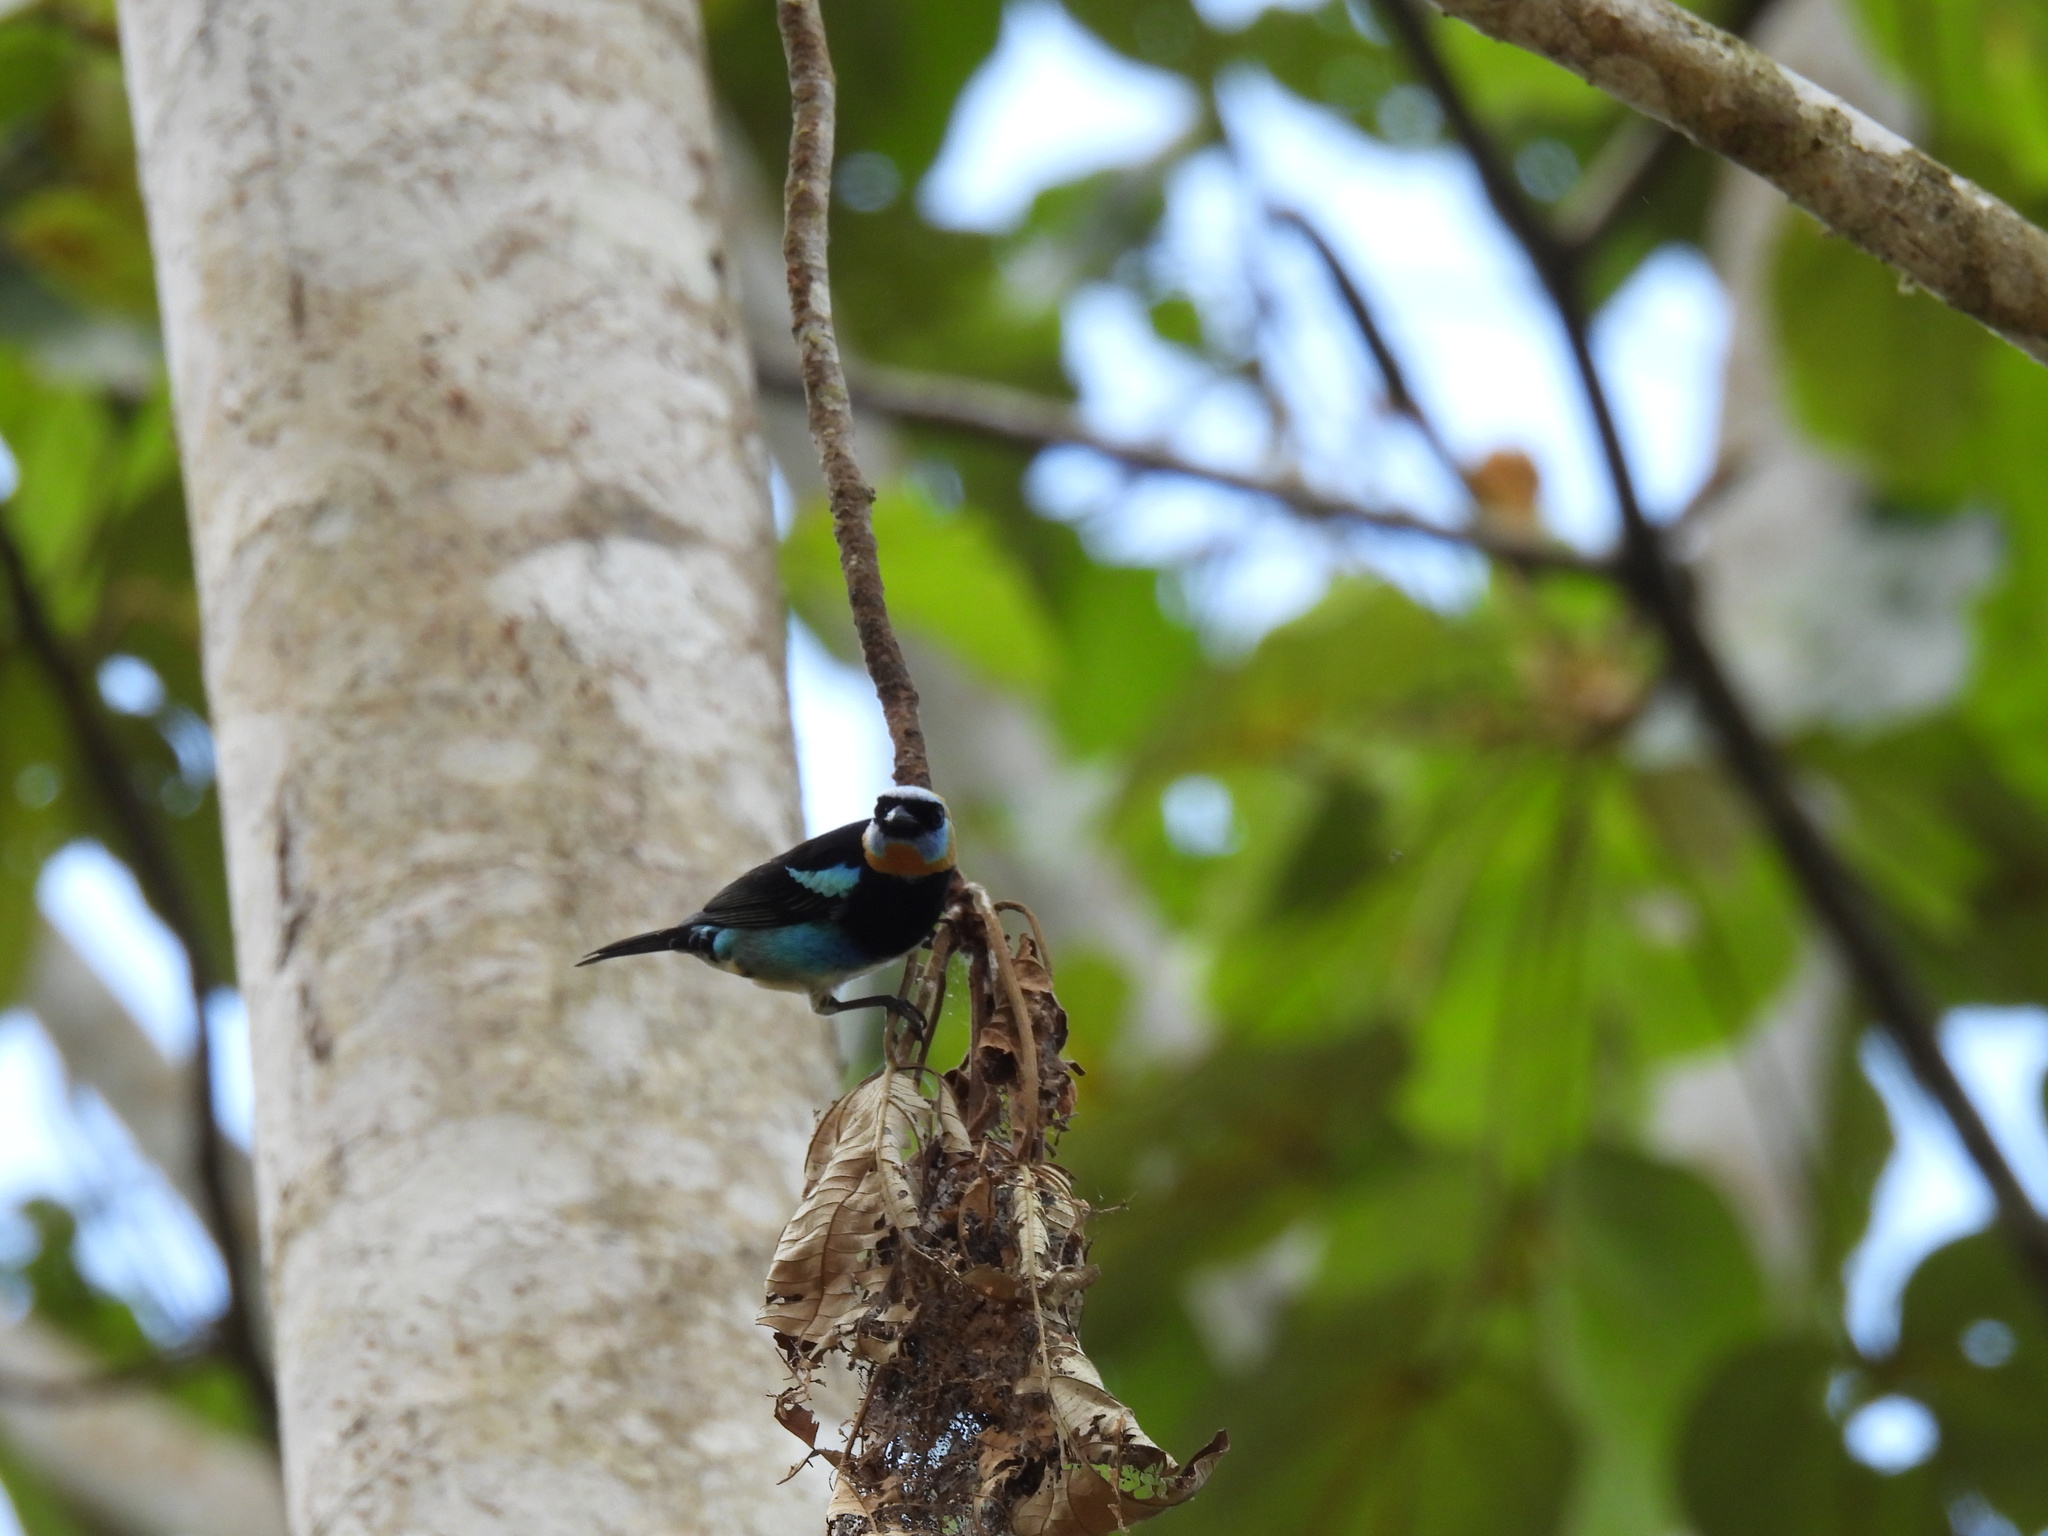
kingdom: Animalia
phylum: Chordata
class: Aves
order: Passeriformes
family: Thraupidae
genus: Stilpnia
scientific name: Stilpnia larvata
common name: Golden-hooded tanager
